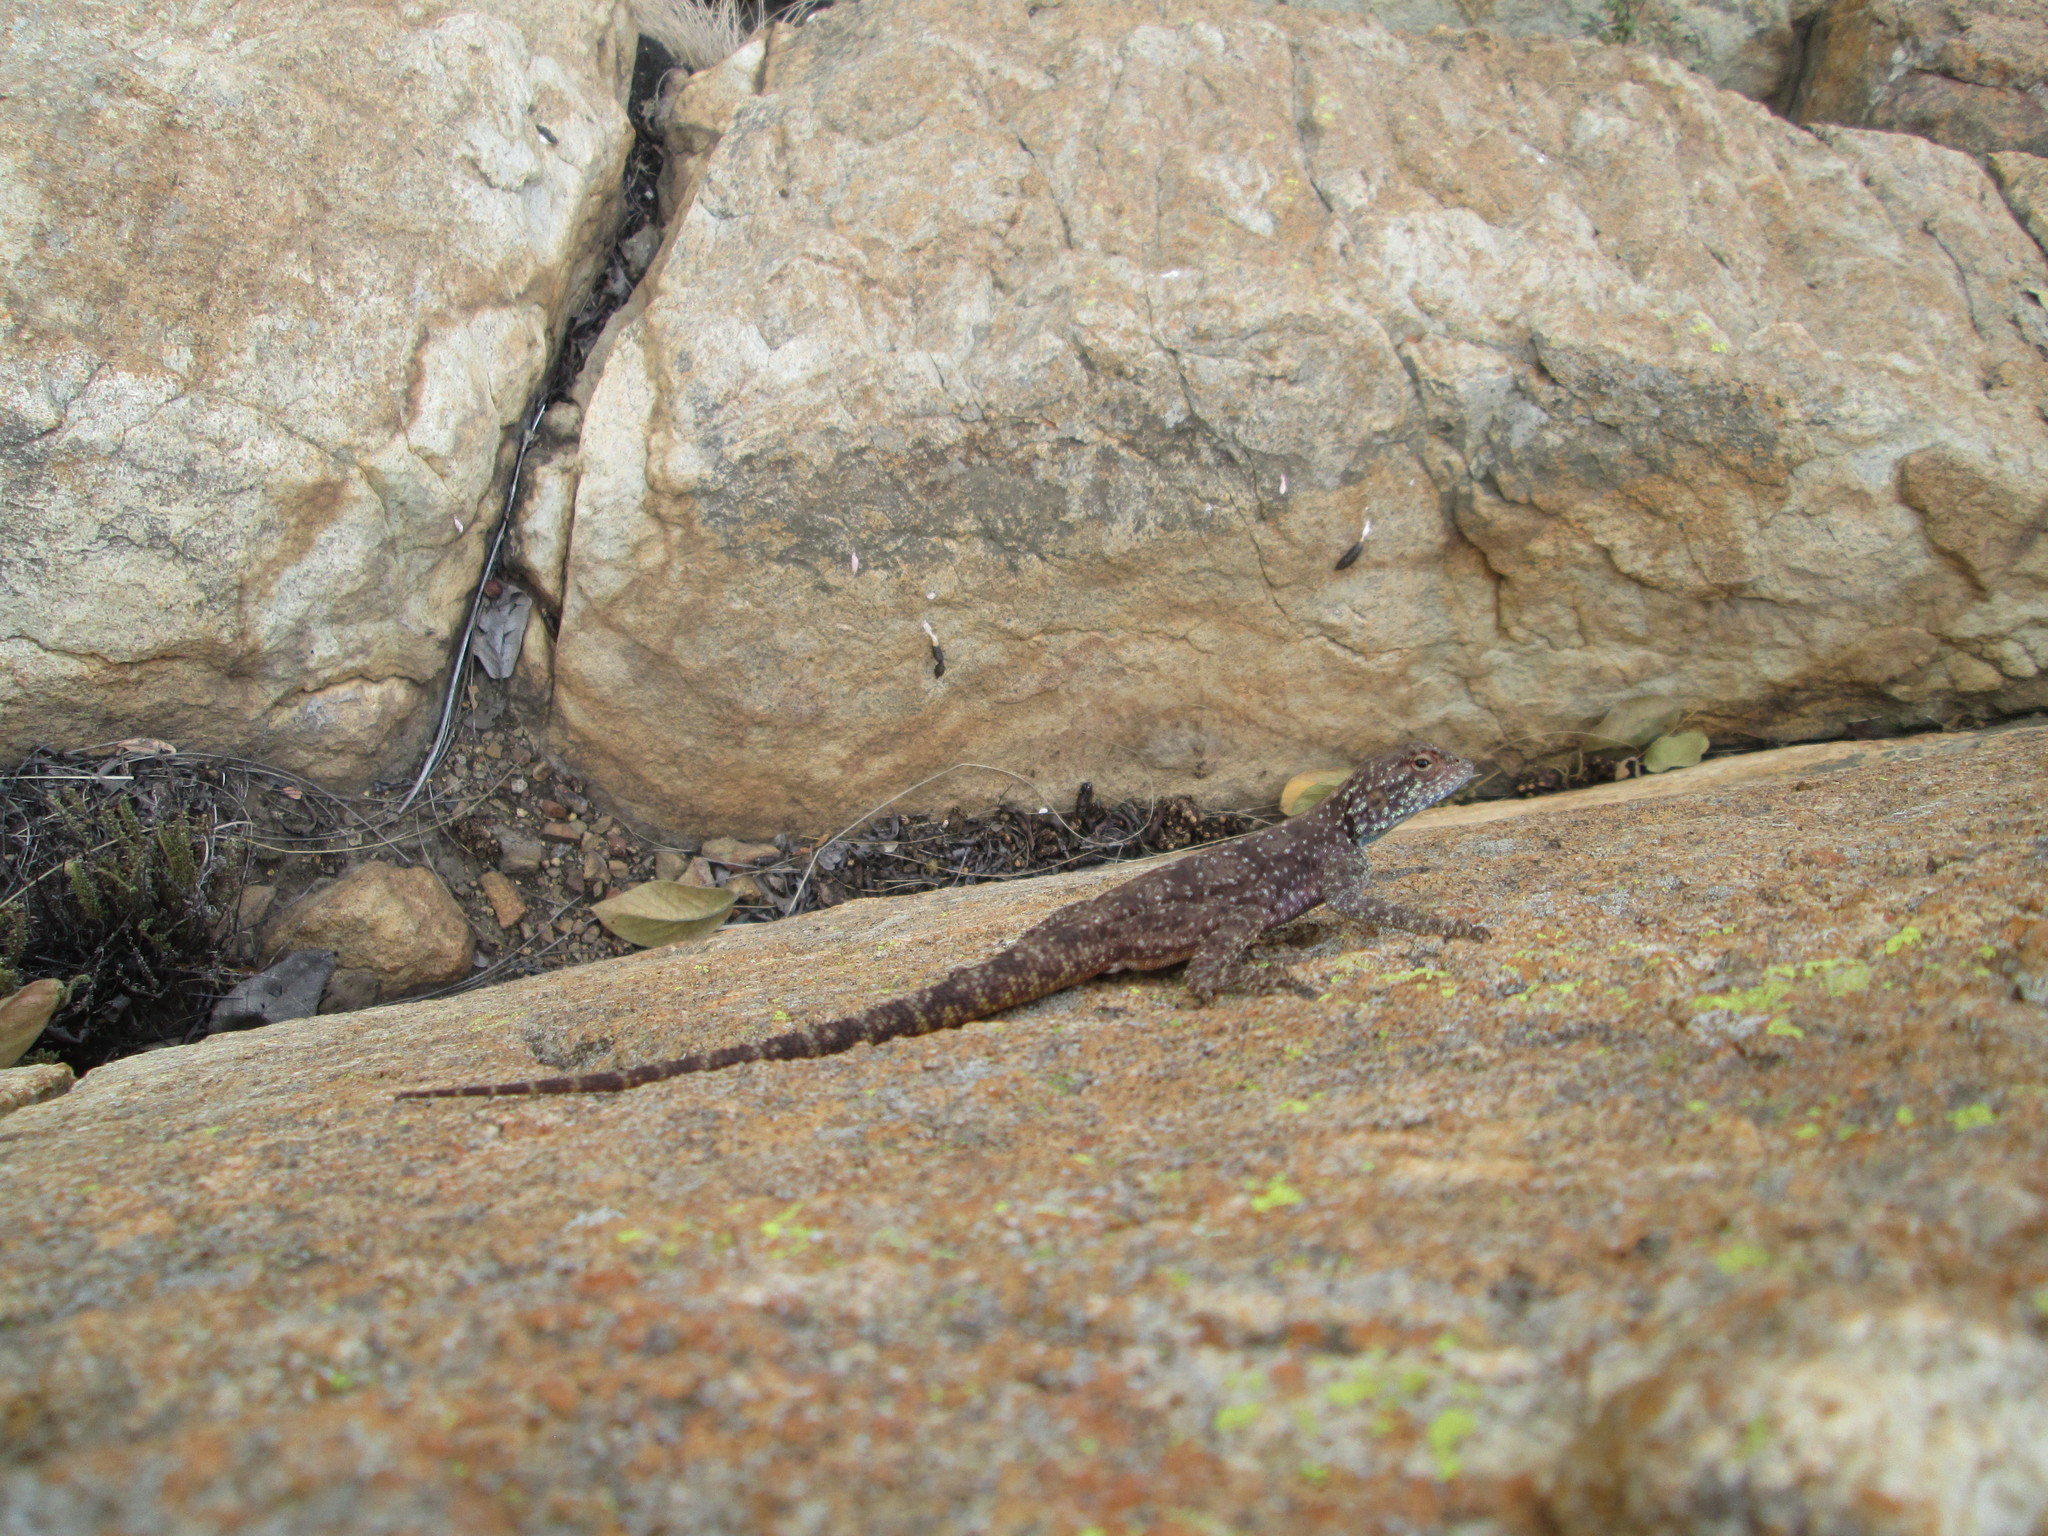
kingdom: Animalia
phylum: Chordata
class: Squamata
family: Agamidae
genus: Agama
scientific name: Agama atra
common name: Southern african rock agama
